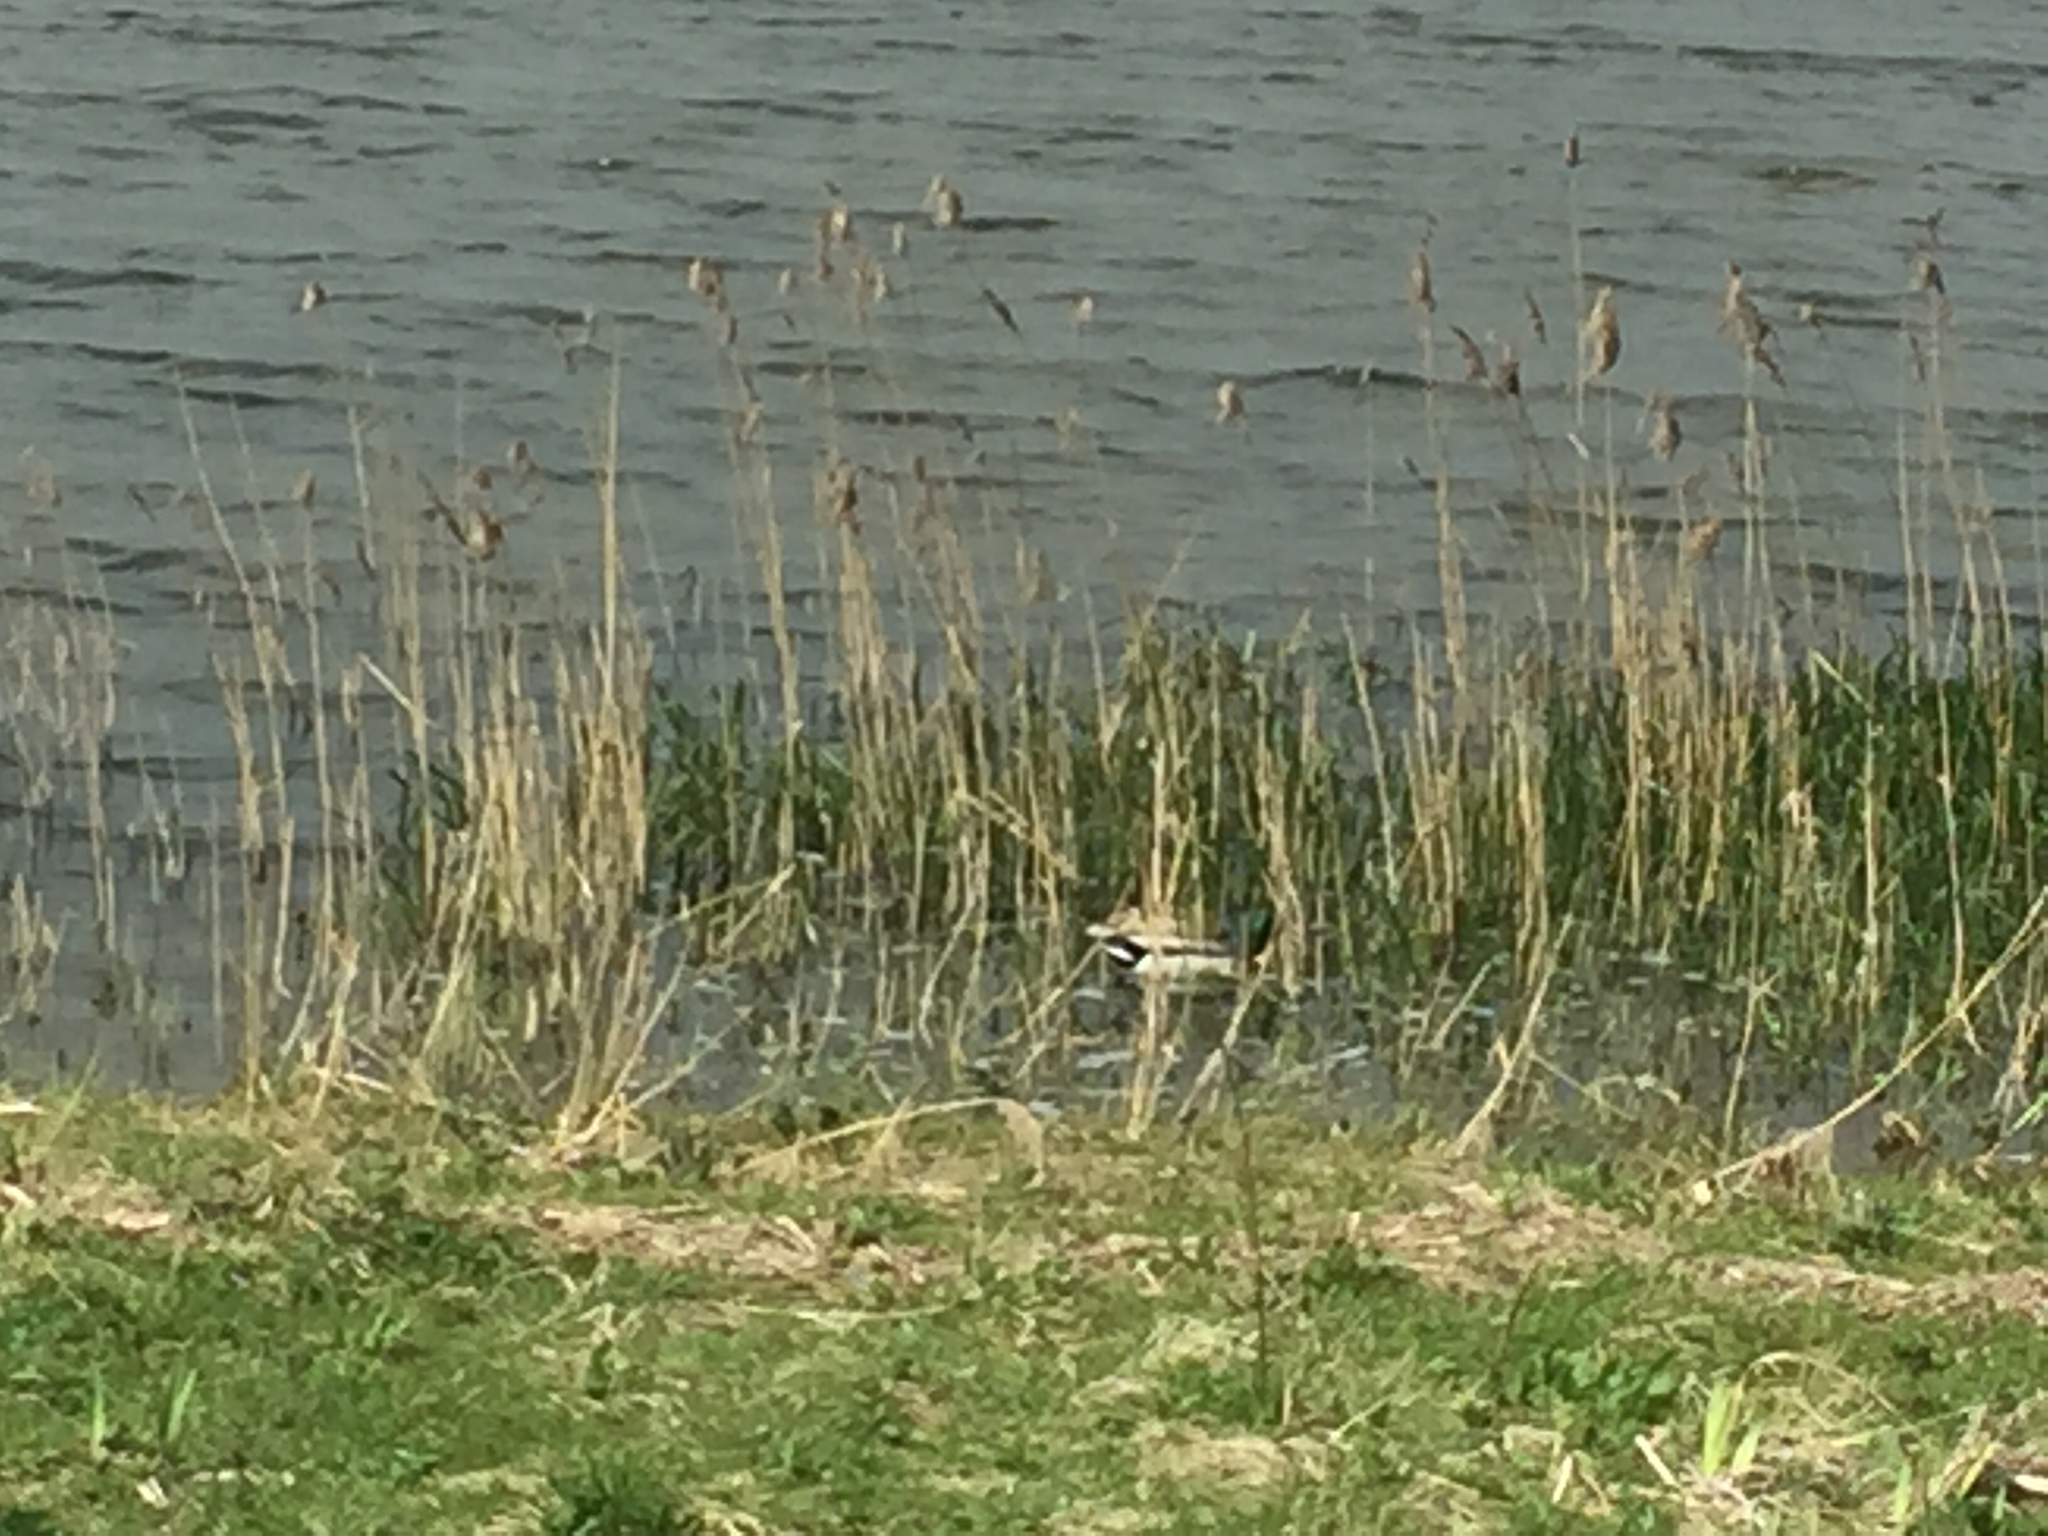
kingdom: Animalia
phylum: Chordata
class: Aves
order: Anseriformes
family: Anatidae
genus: Anas
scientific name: Anas platyrhynchos
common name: Mallard
